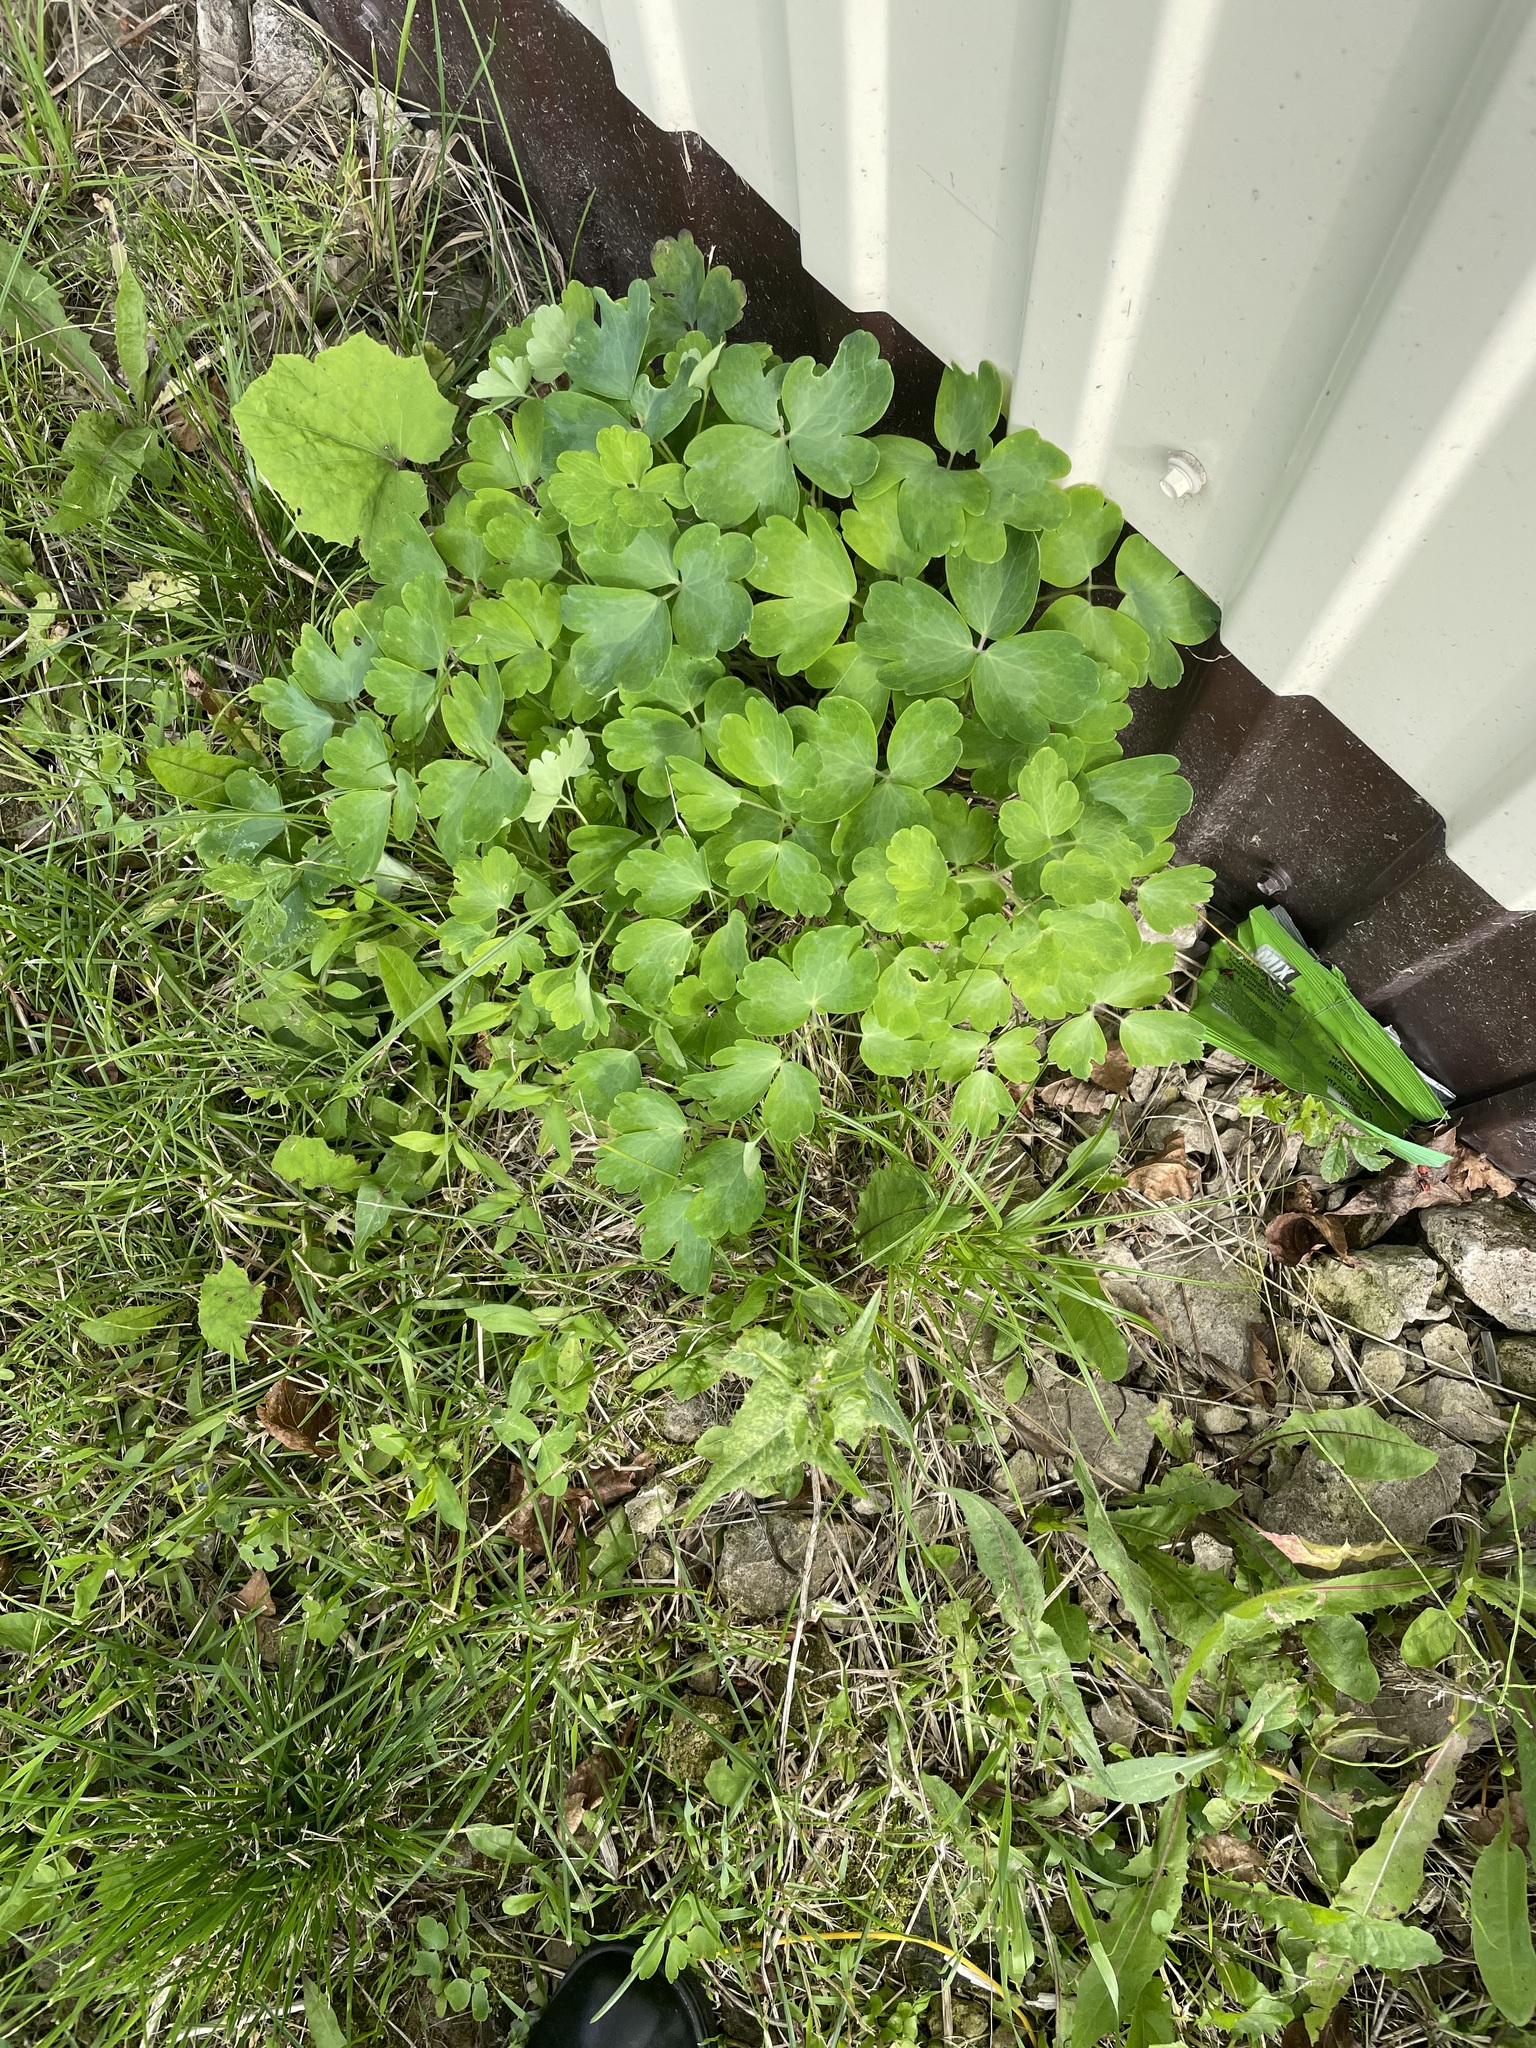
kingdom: Plantae
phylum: Tracheophyta
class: Magnoliopsida
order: Ranunculales
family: Ranunculaceae
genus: Aquilegia
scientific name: Aquilegia vulgaris
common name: Columbine
